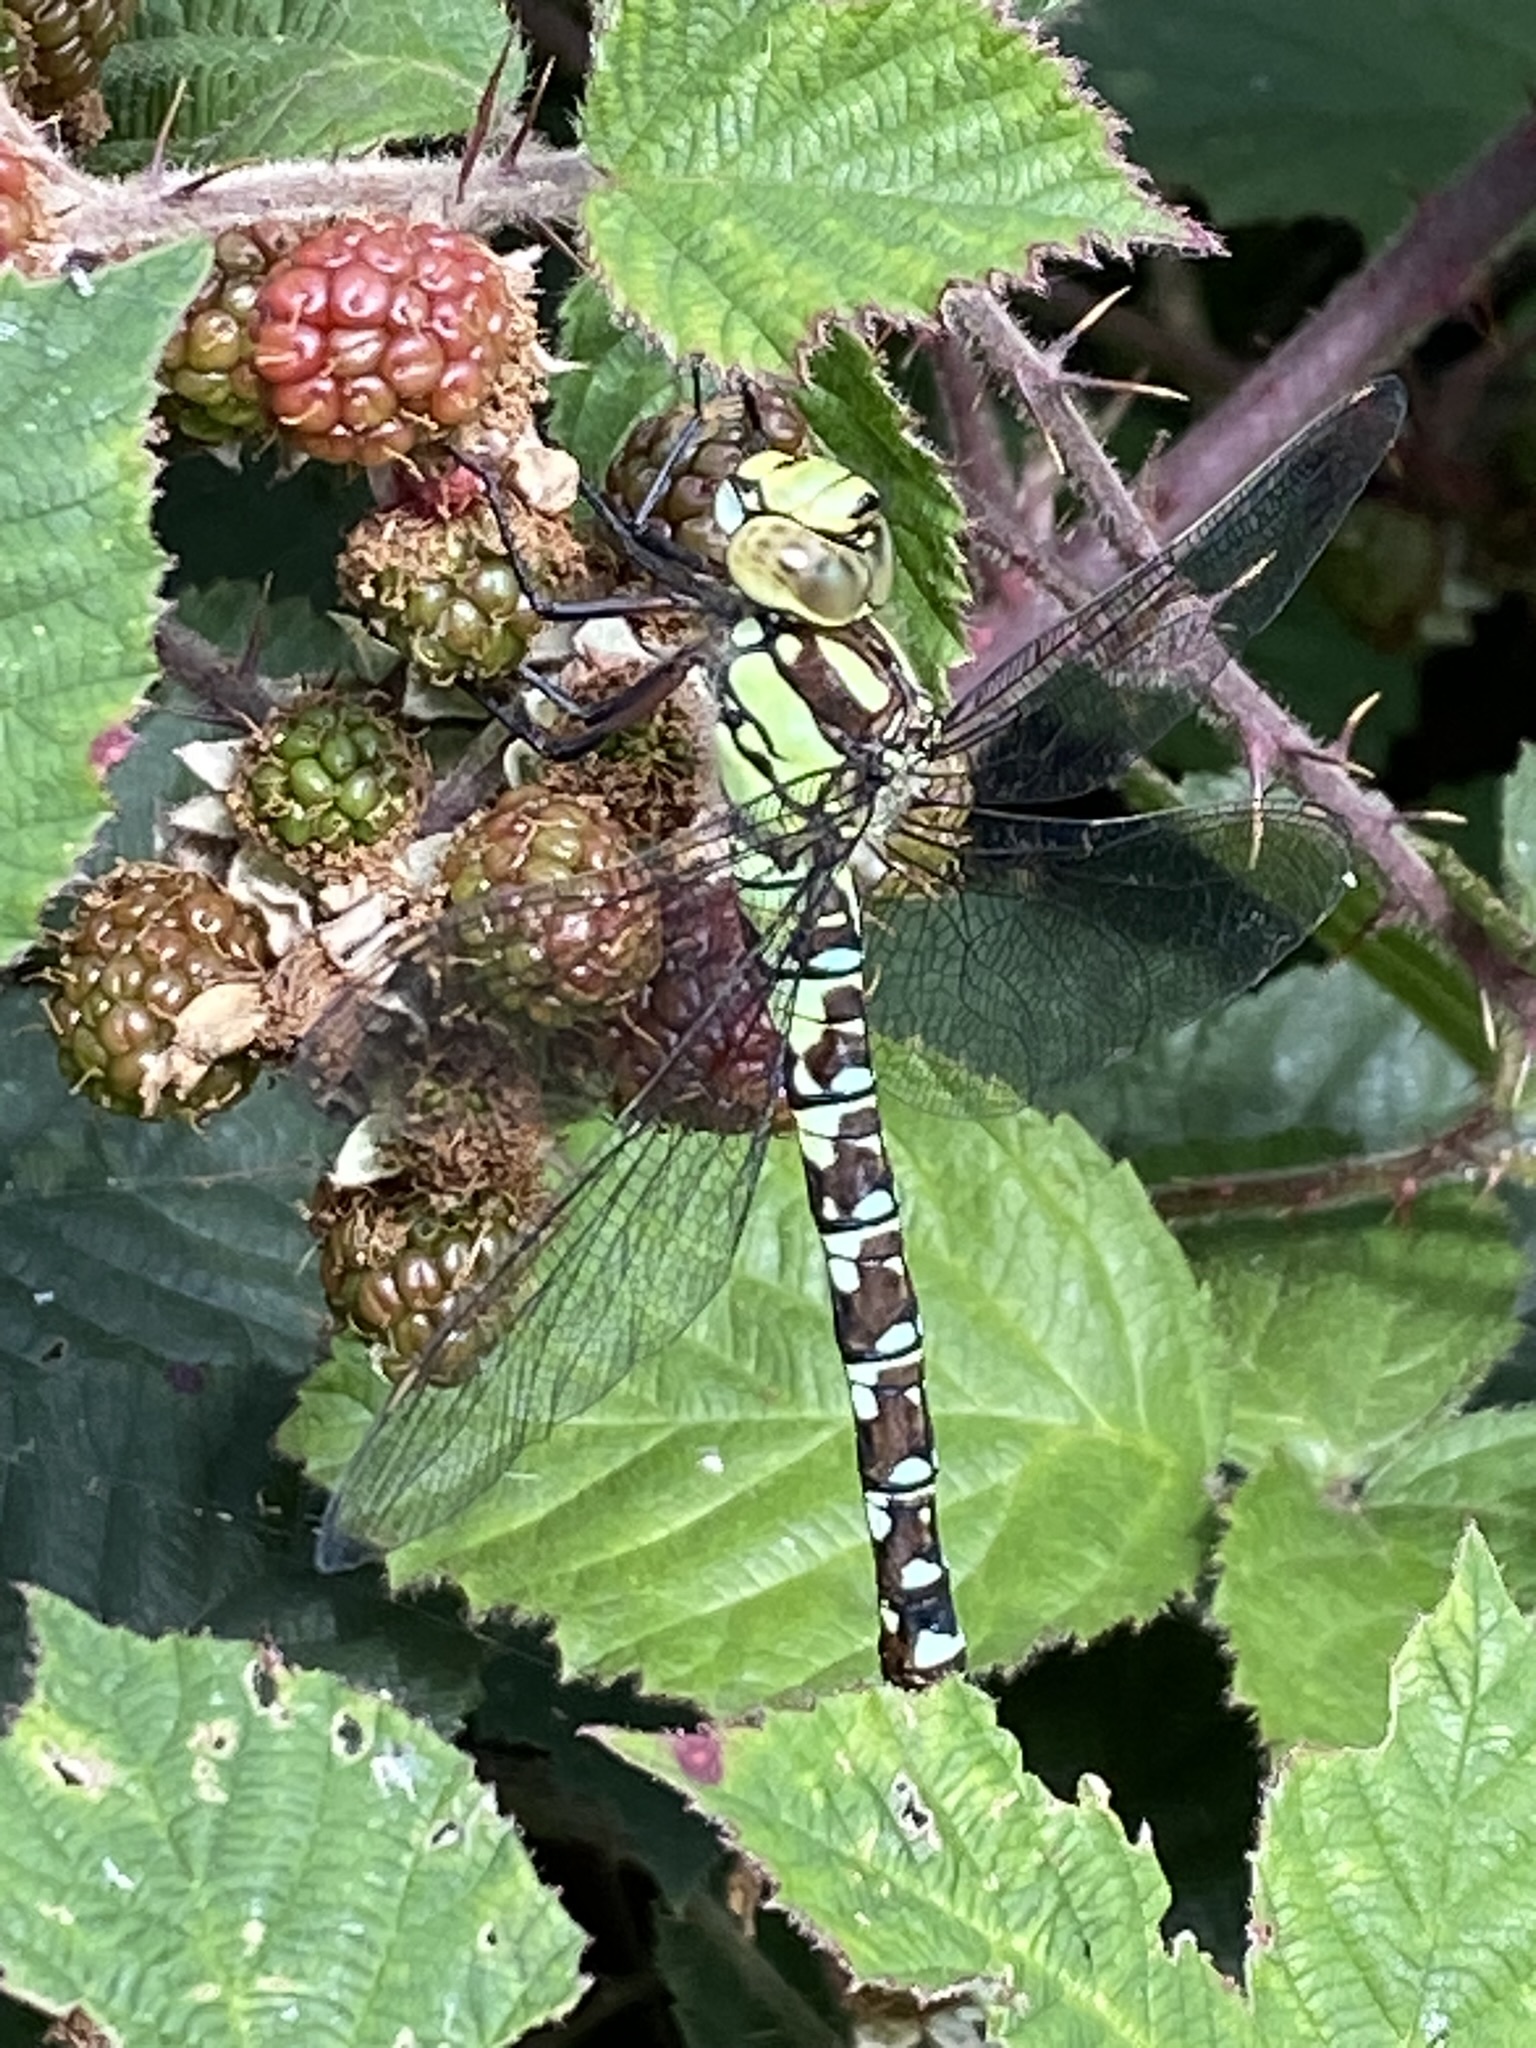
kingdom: Animalia
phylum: Arthropoda
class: Insecta
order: Odonata
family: Aeshnidae
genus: Aeshna
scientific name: Aeshna cyanea
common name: Southern hawker
